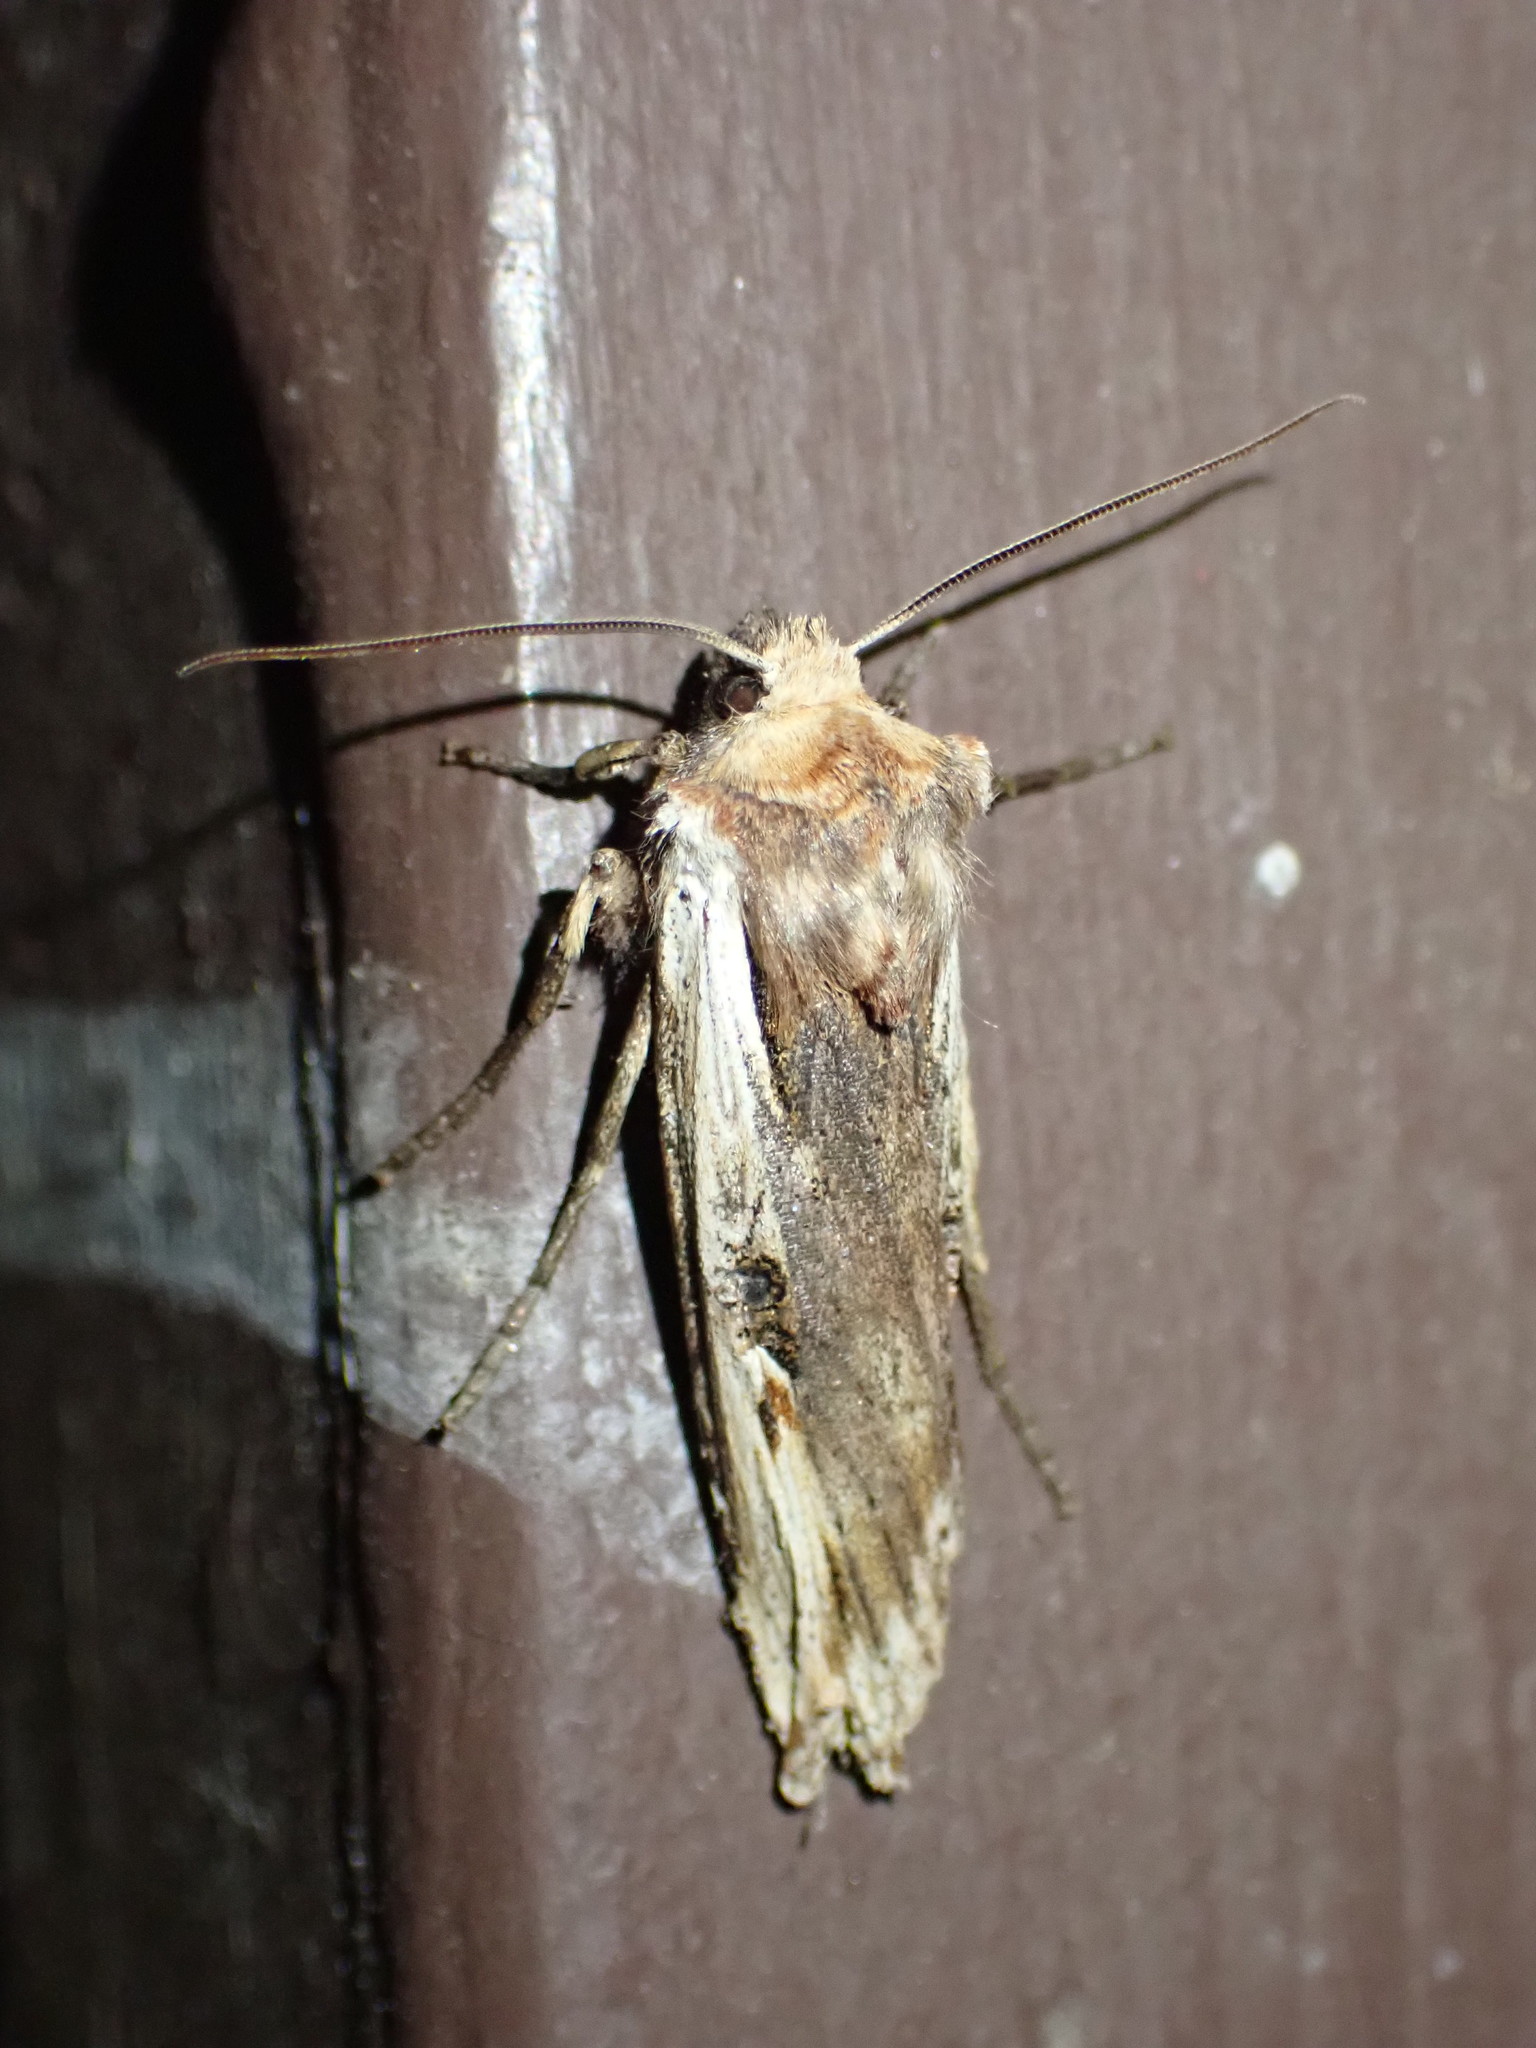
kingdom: Animalia
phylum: Arthropoda
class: Insecta
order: Lepidoptera
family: Noctuidae
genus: Xylena
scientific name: Xylena curvimacula
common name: Dot-and-dash swordgrass moth
